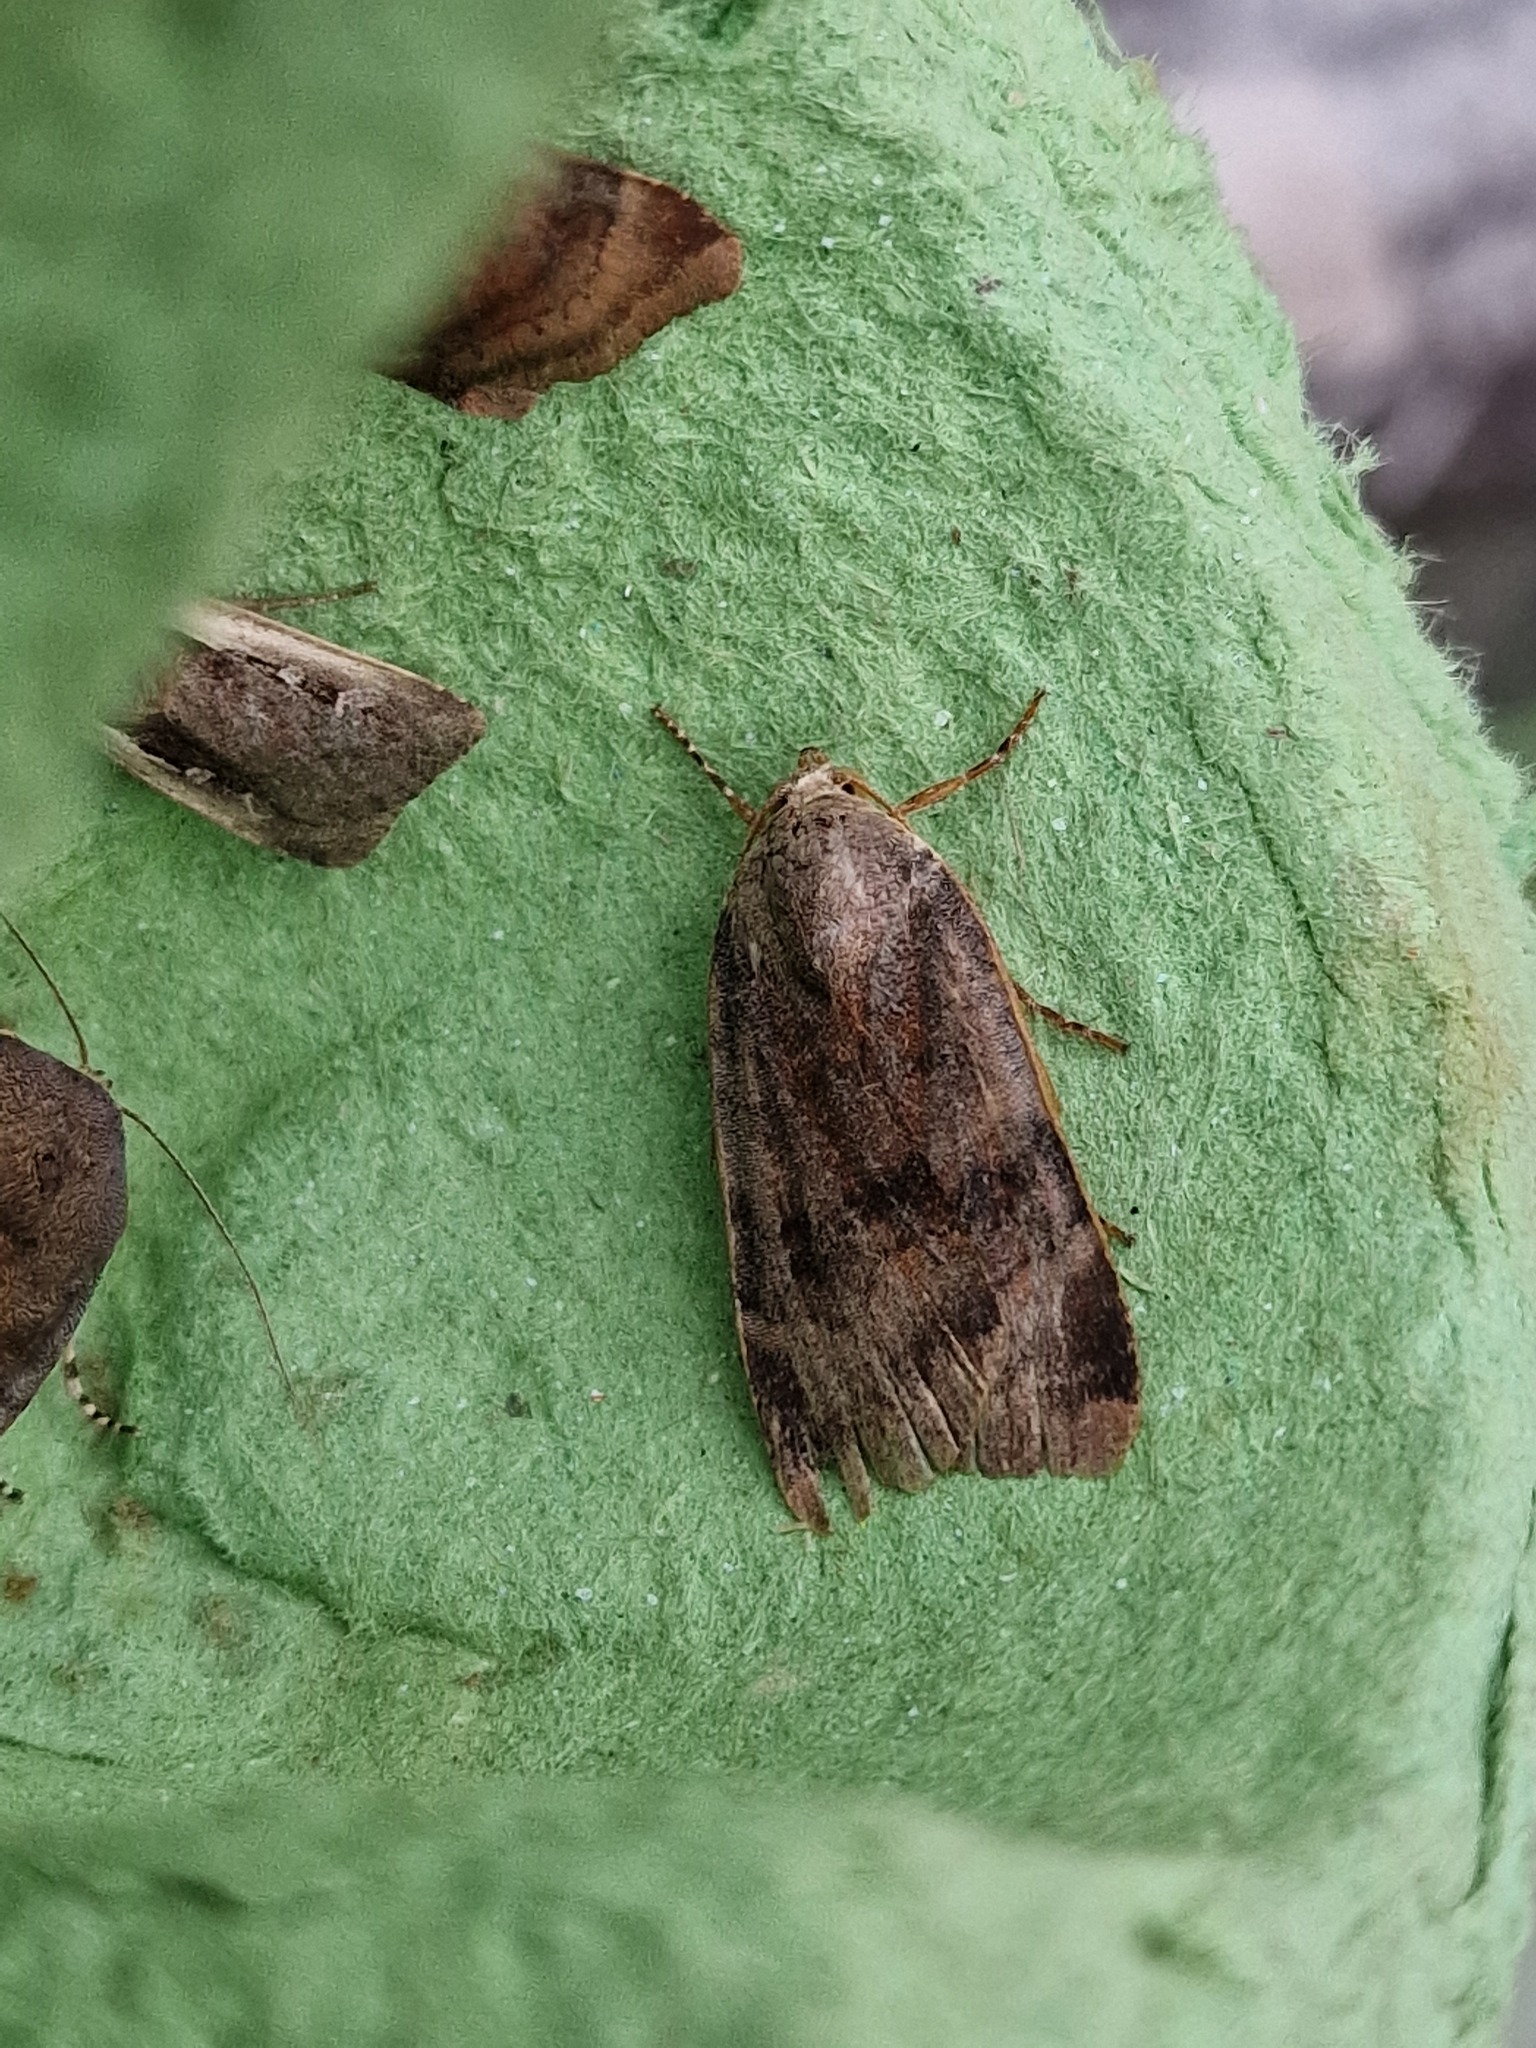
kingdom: Animalia
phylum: Arthropoda
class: Insecta
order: Lepidoptera
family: Noctuidae
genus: Noctua
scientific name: Noctua
